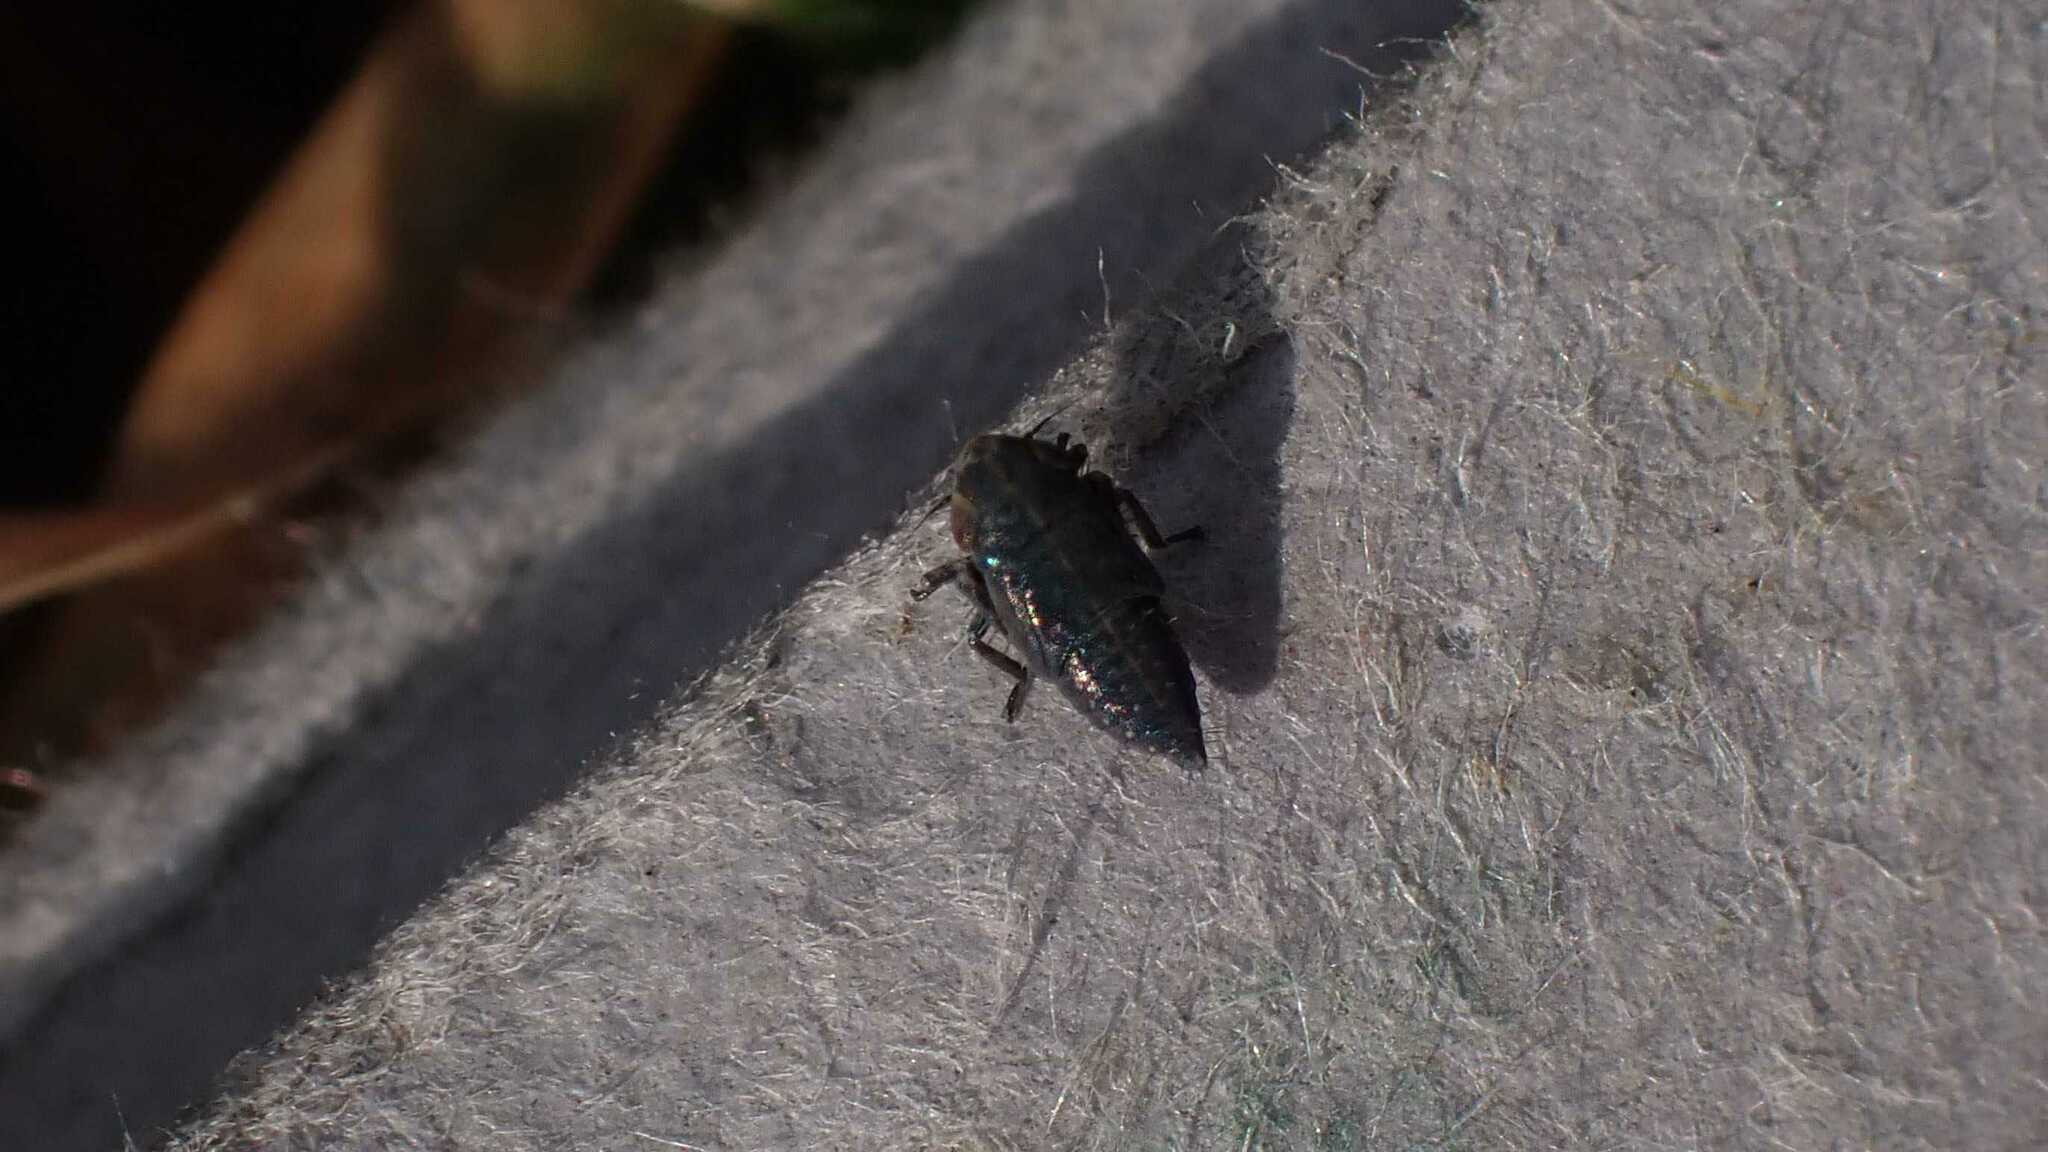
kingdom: Animalia
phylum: Arthropoda
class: Insecta
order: Hemiptera
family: Cicadellidae
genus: Euscelis
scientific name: Euscelis incisa
